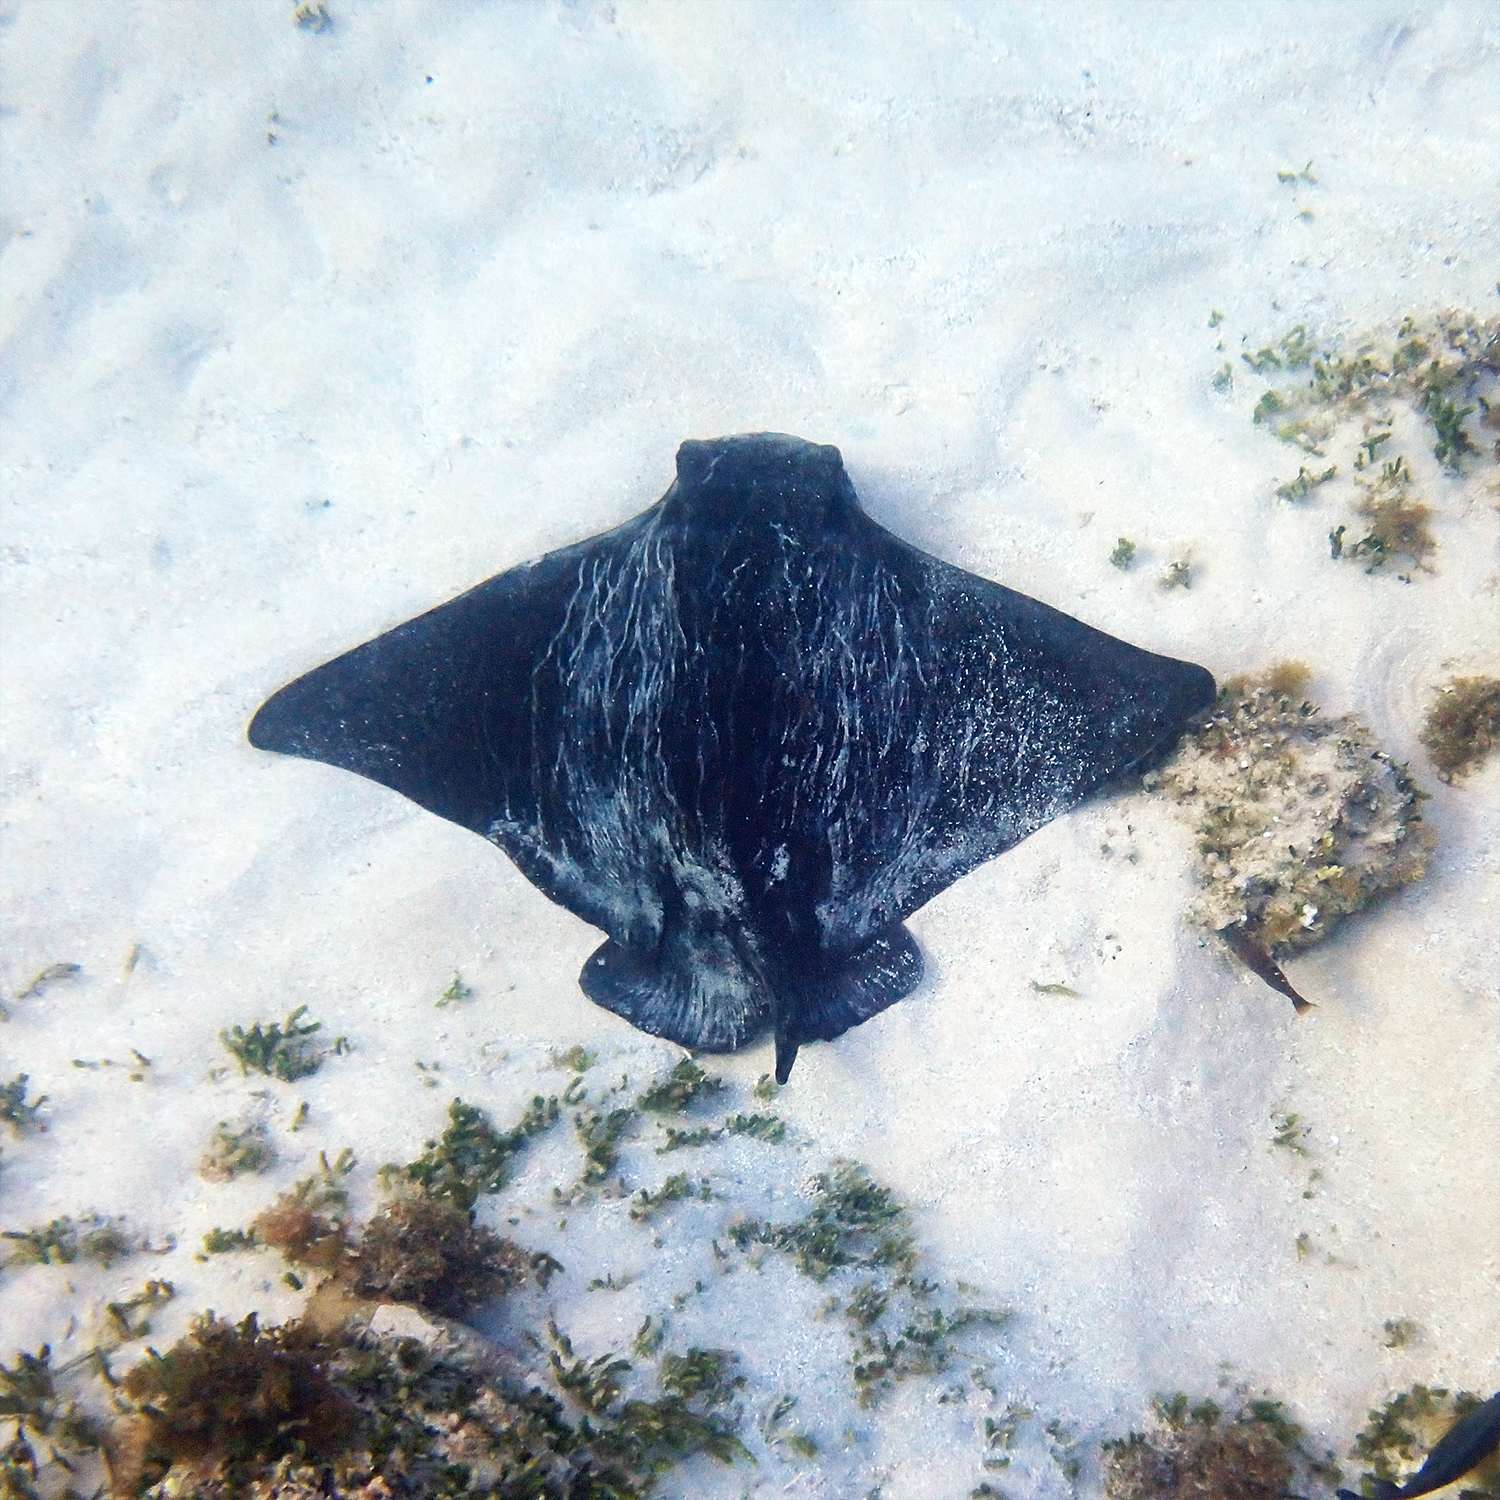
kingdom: Animalia
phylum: Chordata
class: Elasmobranchii
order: Myliobatiformes
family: Myliobatidae
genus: Myliobatis
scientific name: Myliobatis tenuicaudatus
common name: Eagle ray
